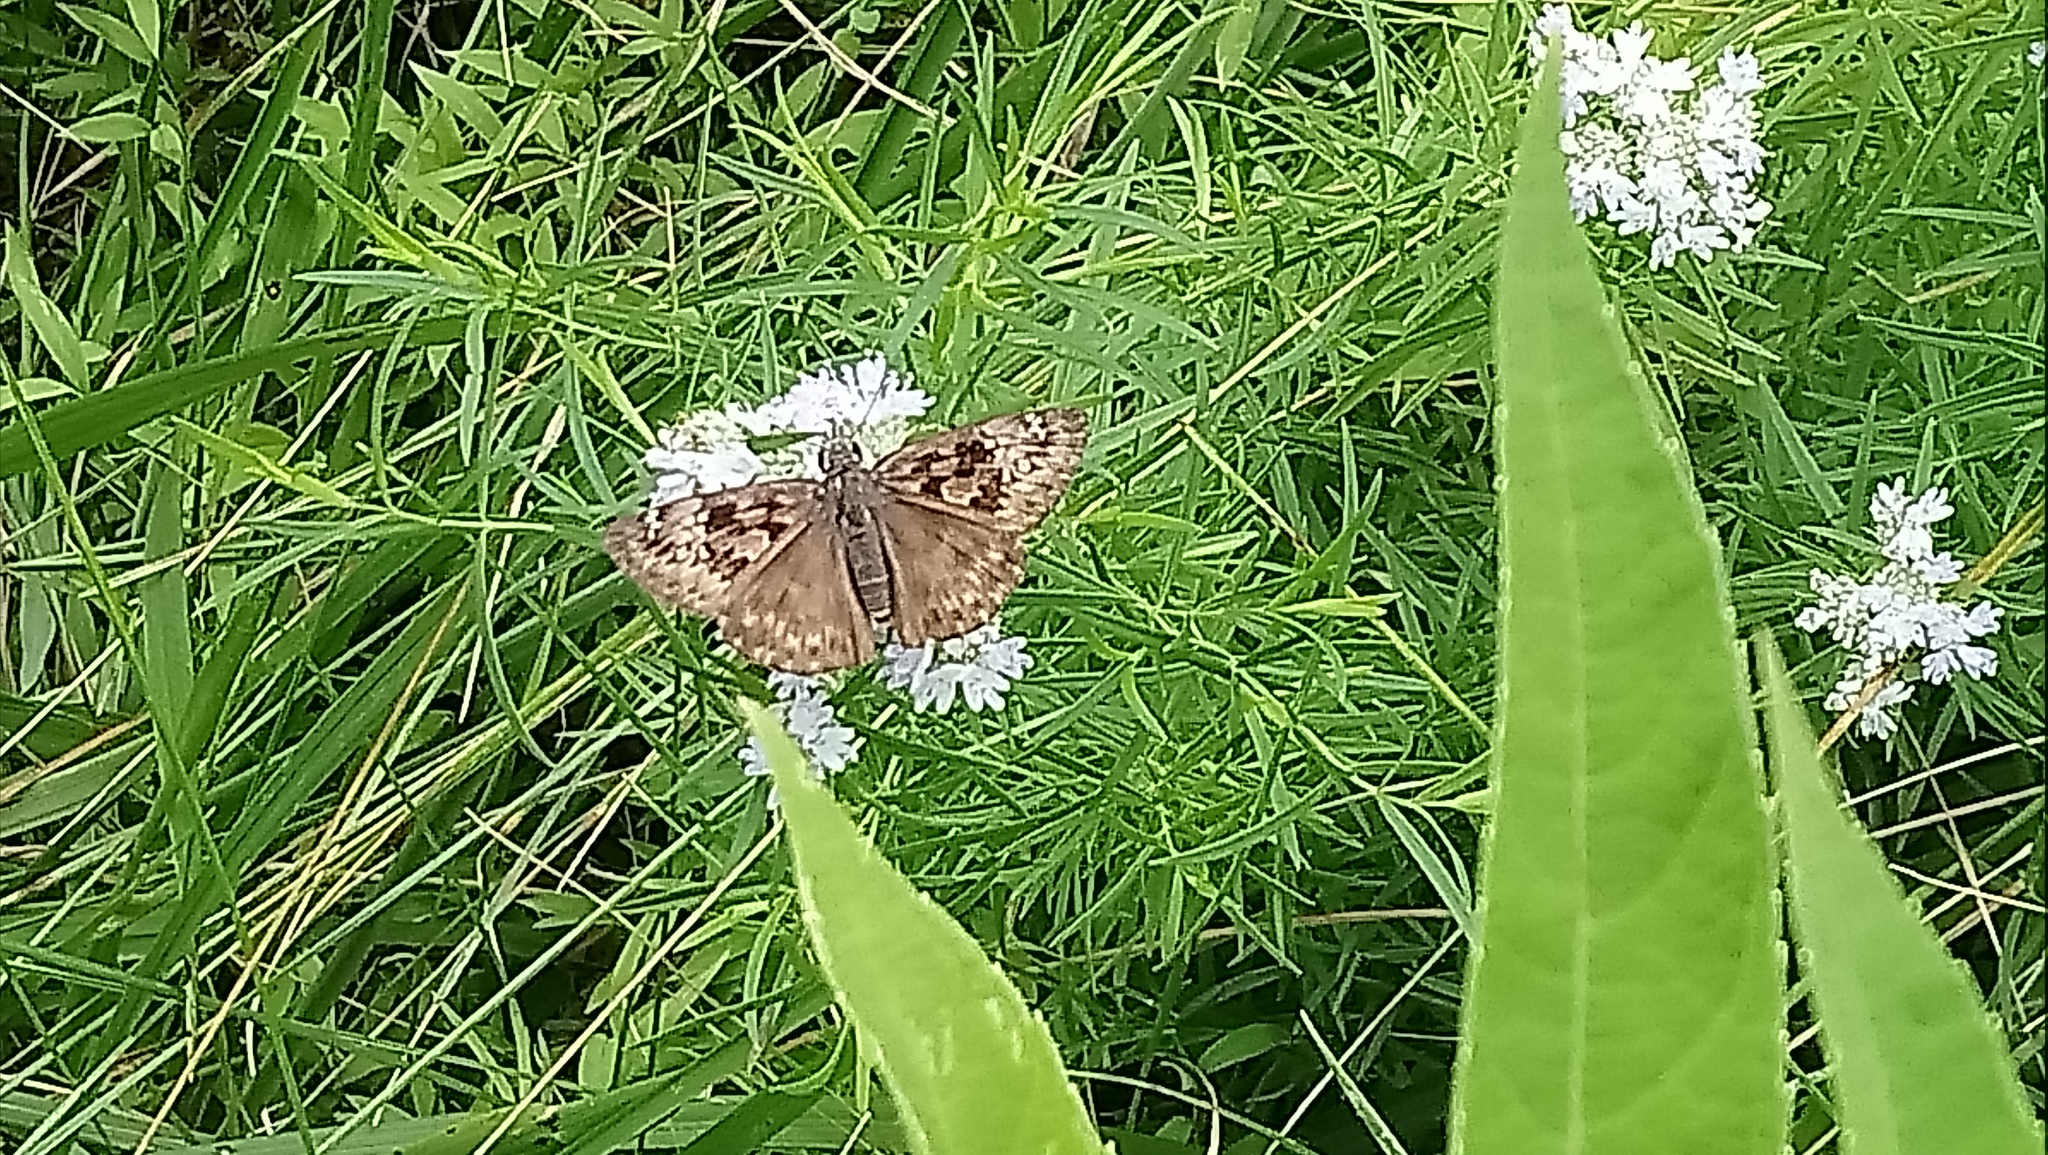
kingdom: Animalia
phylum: Arthropoda
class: Insecta
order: Lepidoptera
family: Hesperiidae
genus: Erynnis
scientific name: Erynnis horatius
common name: Horace's duskywing
